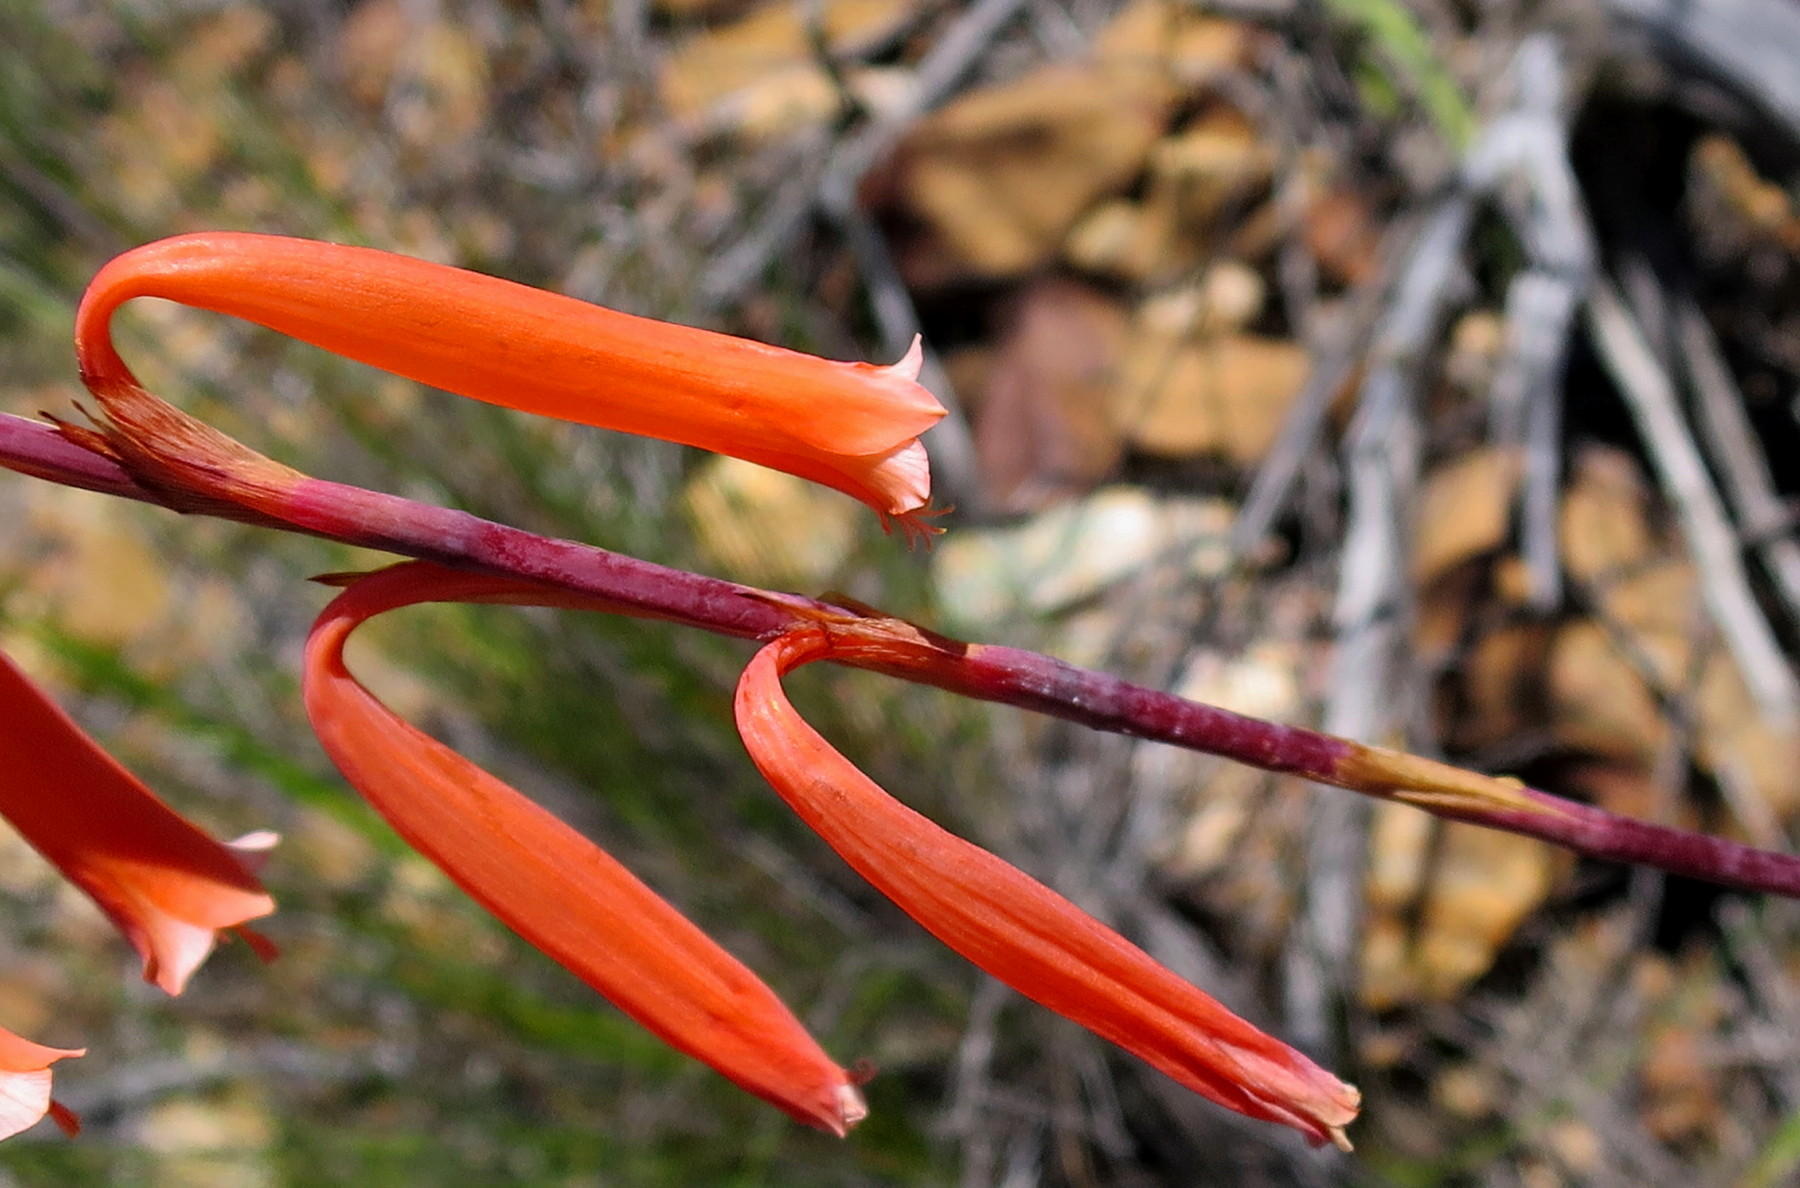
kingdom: Plantae
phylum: Tracheophyta
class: Liliopsida
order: Asparagales
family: Iridaceae
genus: Watsonia
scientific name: Watsonia aletroides
